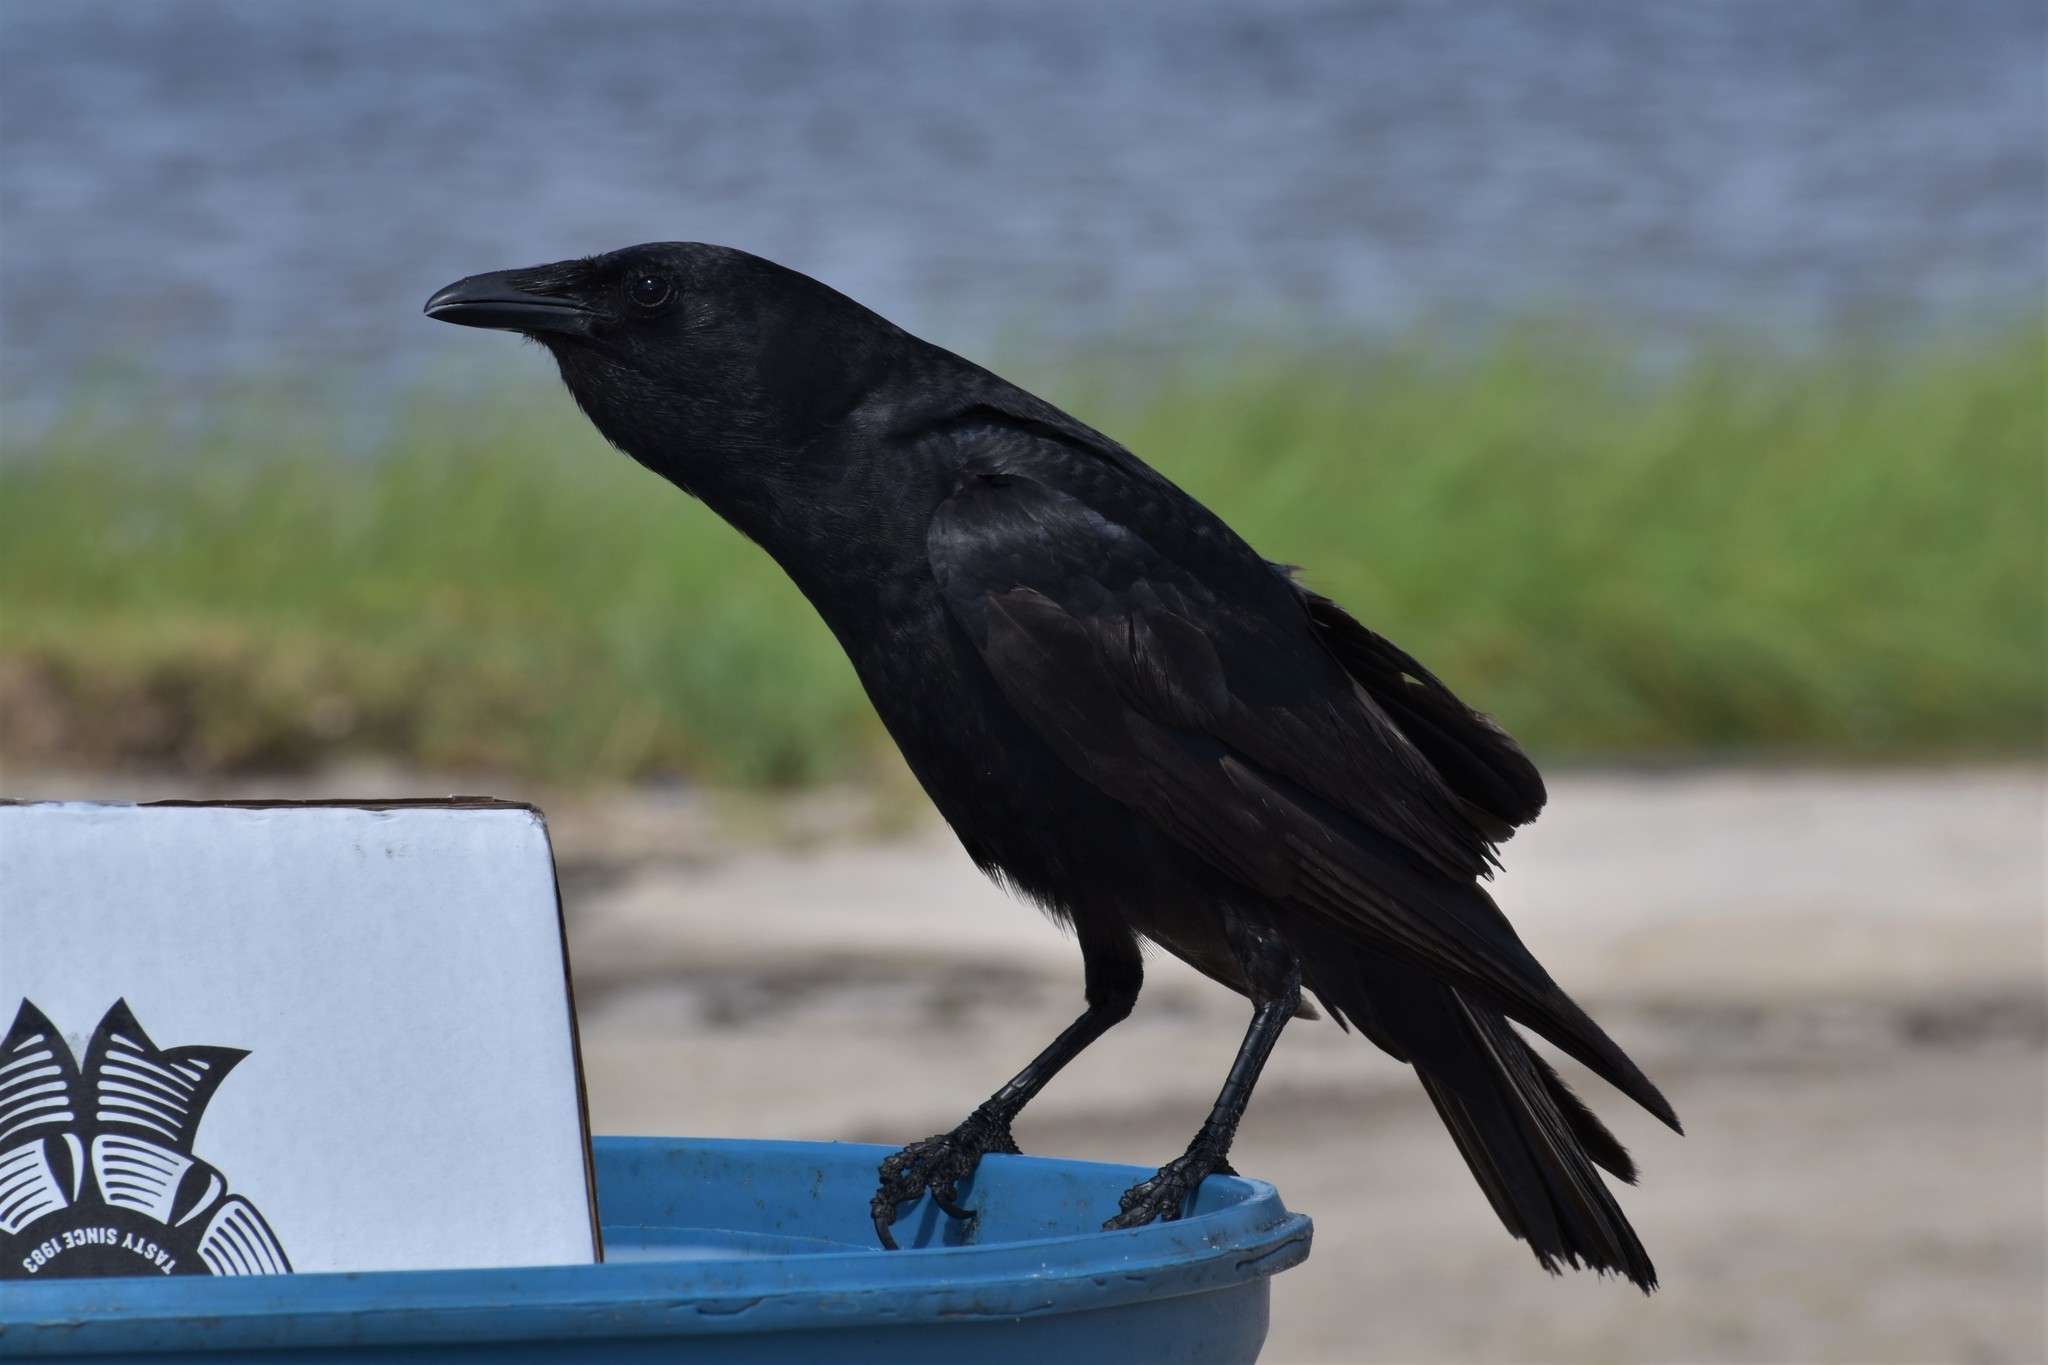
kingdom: Animalia
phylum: Chordata
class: Aves
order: Passeriformes
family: Corvidae
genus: Corvus
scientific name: Corvus ossifragus
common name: Fish crow
